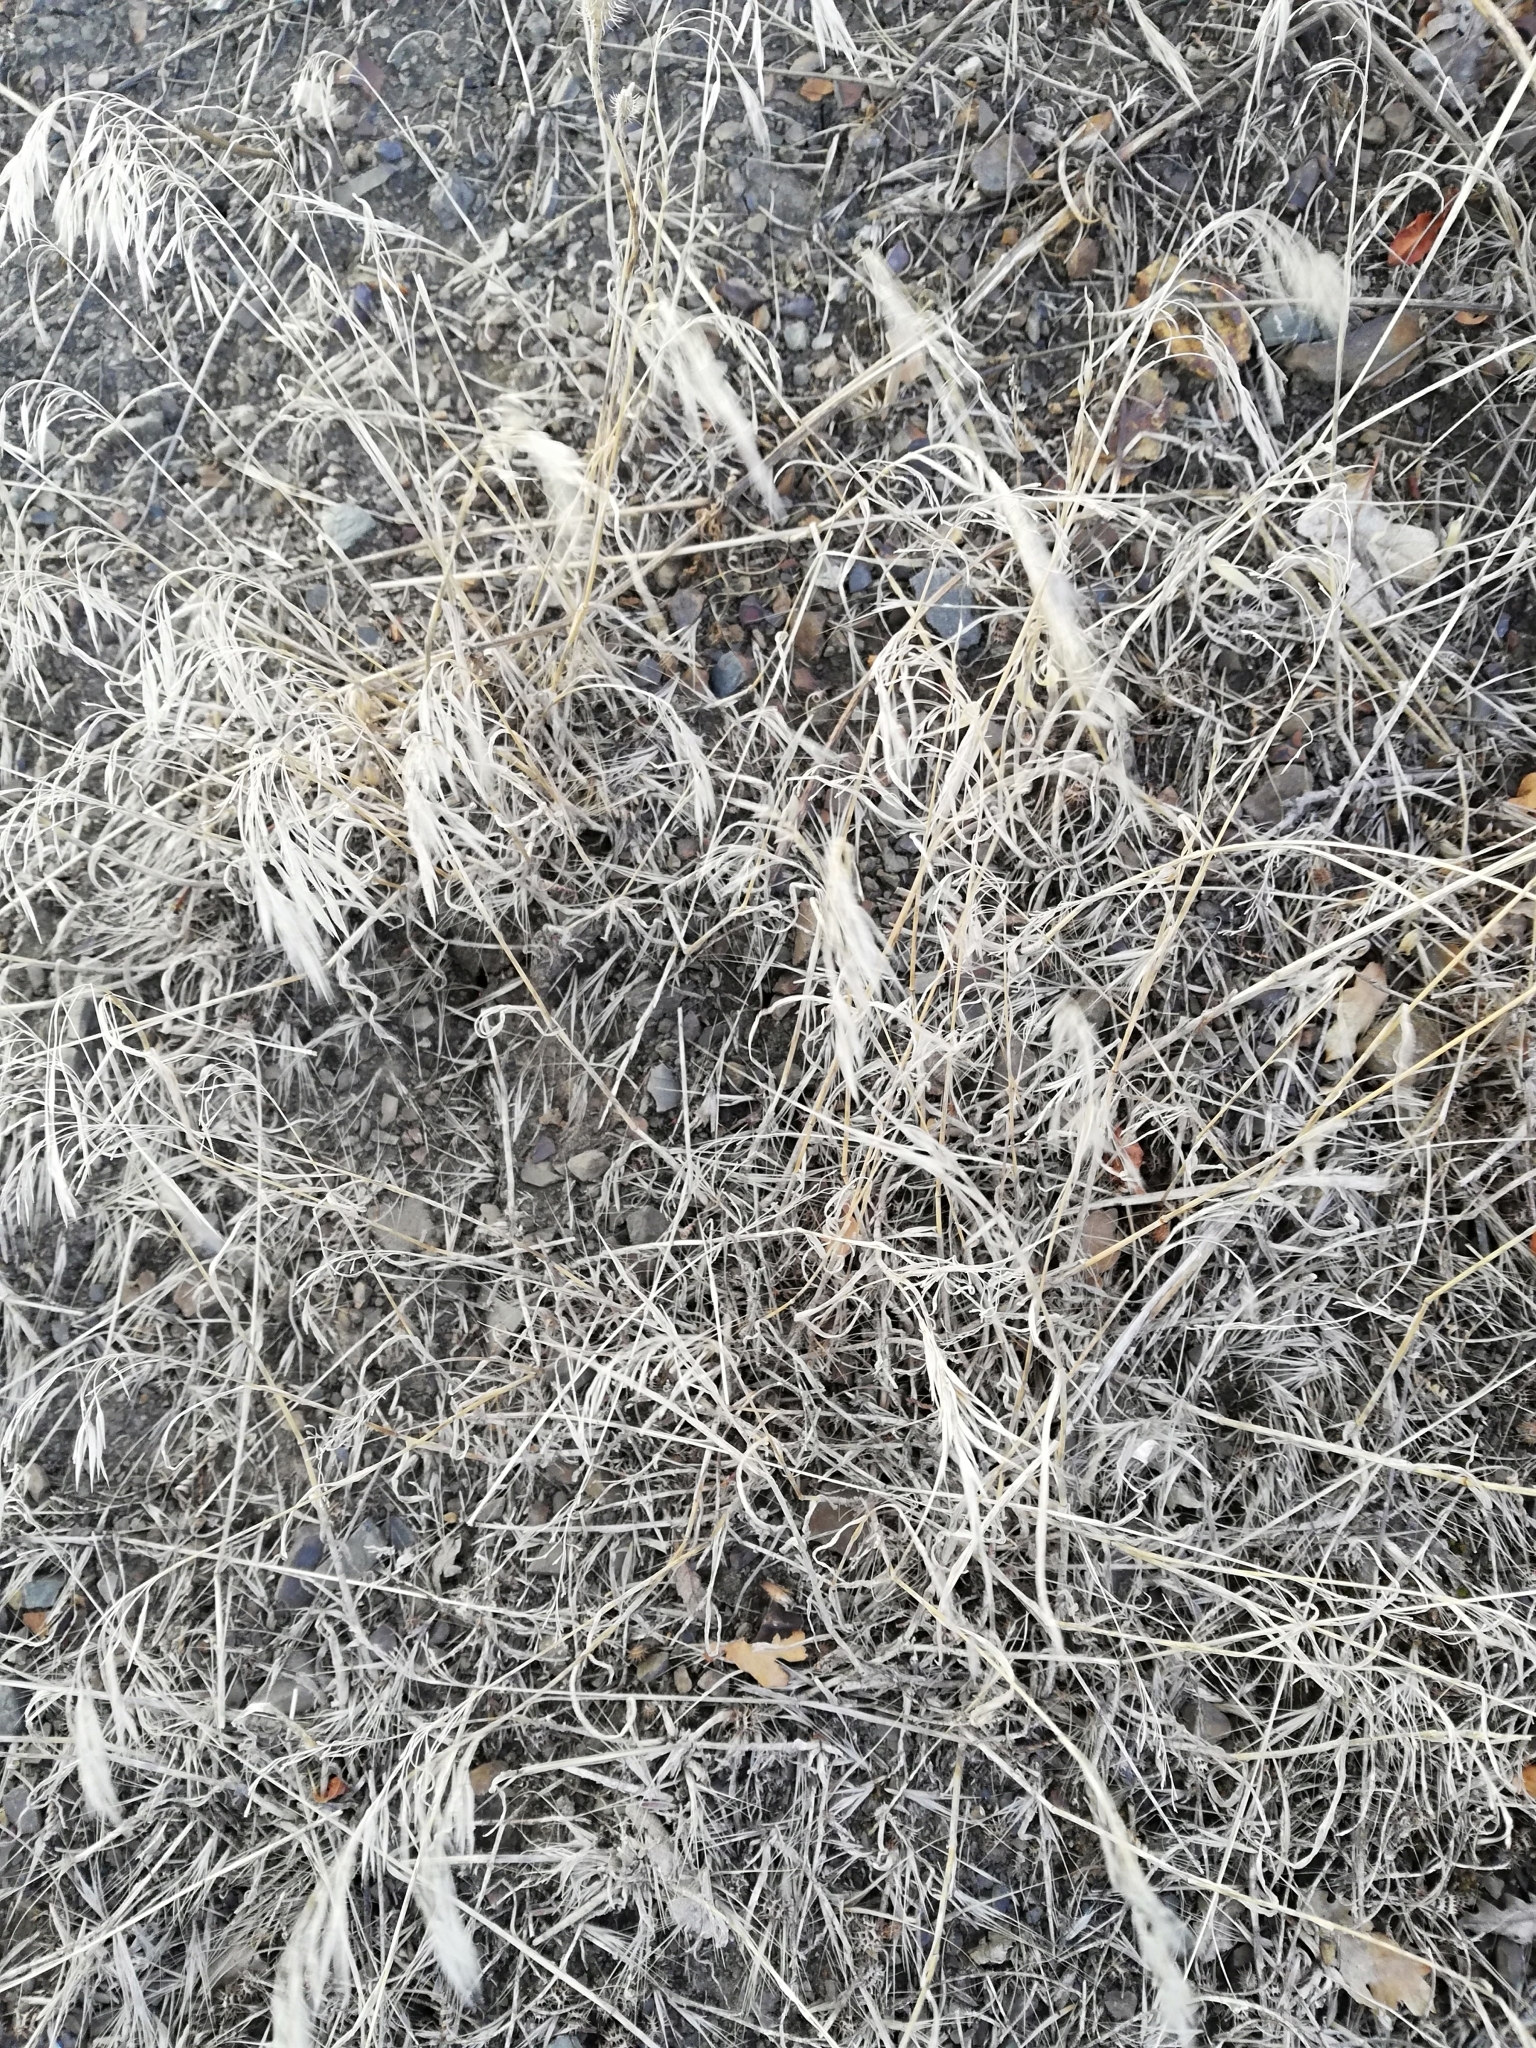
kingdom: Plantae
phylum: Tracheophyta
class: Liliopsida
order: Poales
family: Poaceae
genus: Bromus
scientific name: Bromus tectorum
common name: Cheatgrass
